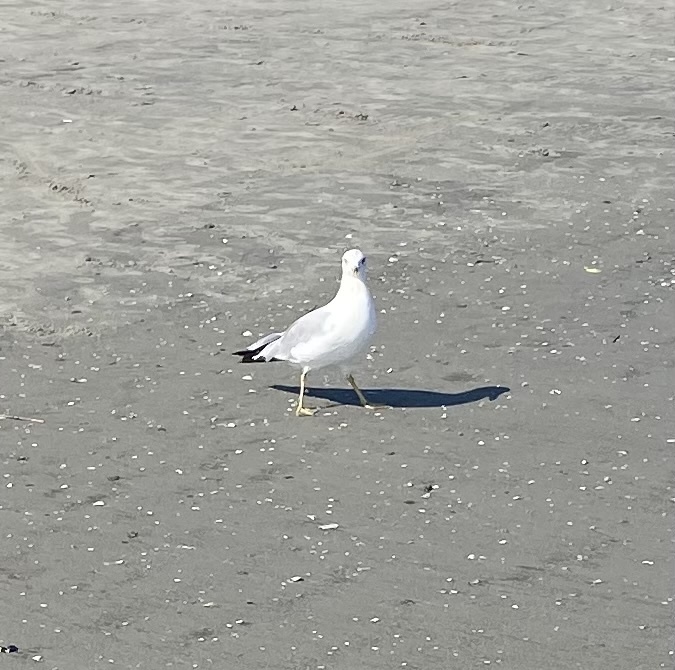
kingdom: Animalia
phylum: Chordata
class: Aves
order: Charadriiformes
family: Laridae
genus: Larus
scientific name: Larus delawarensis
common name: Ring-billed gull
